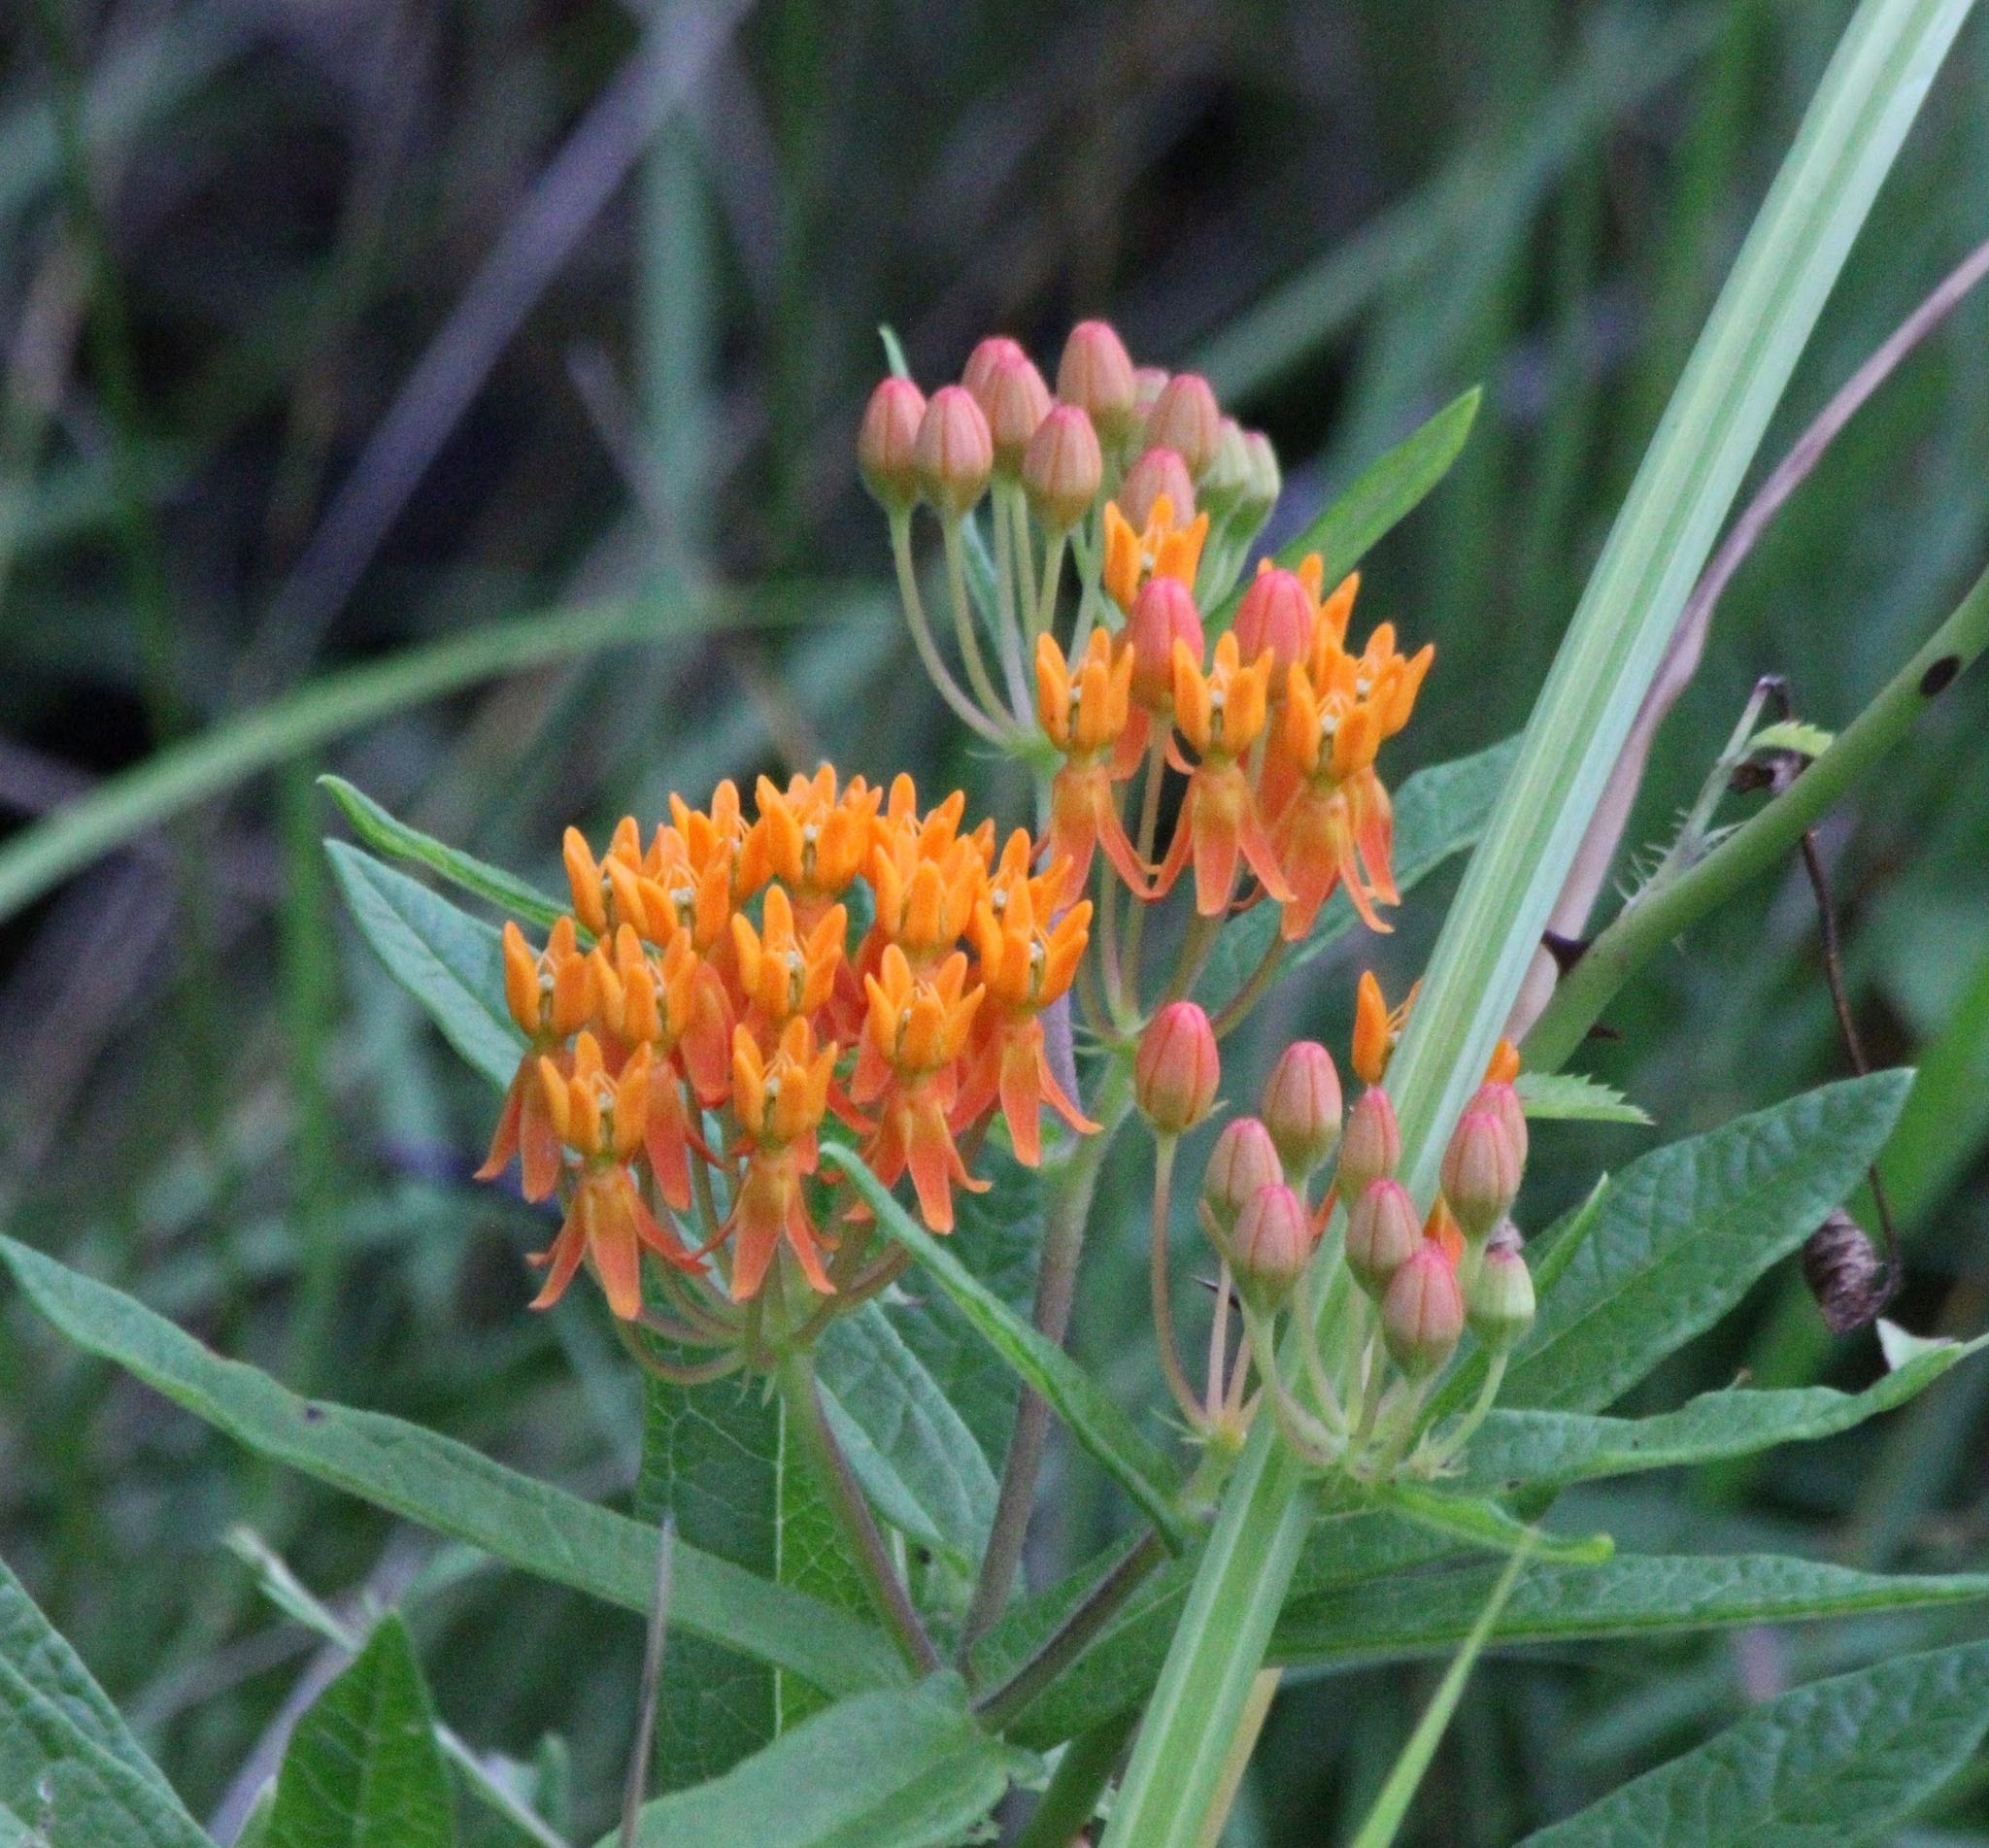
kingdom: Plantae
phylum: Tracheophyta
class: Magnoliopsida
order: Gentianales
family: Apocynaceae
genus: Asclepias
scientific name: Asclepias tuberosa
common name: Butterfly milkweed
